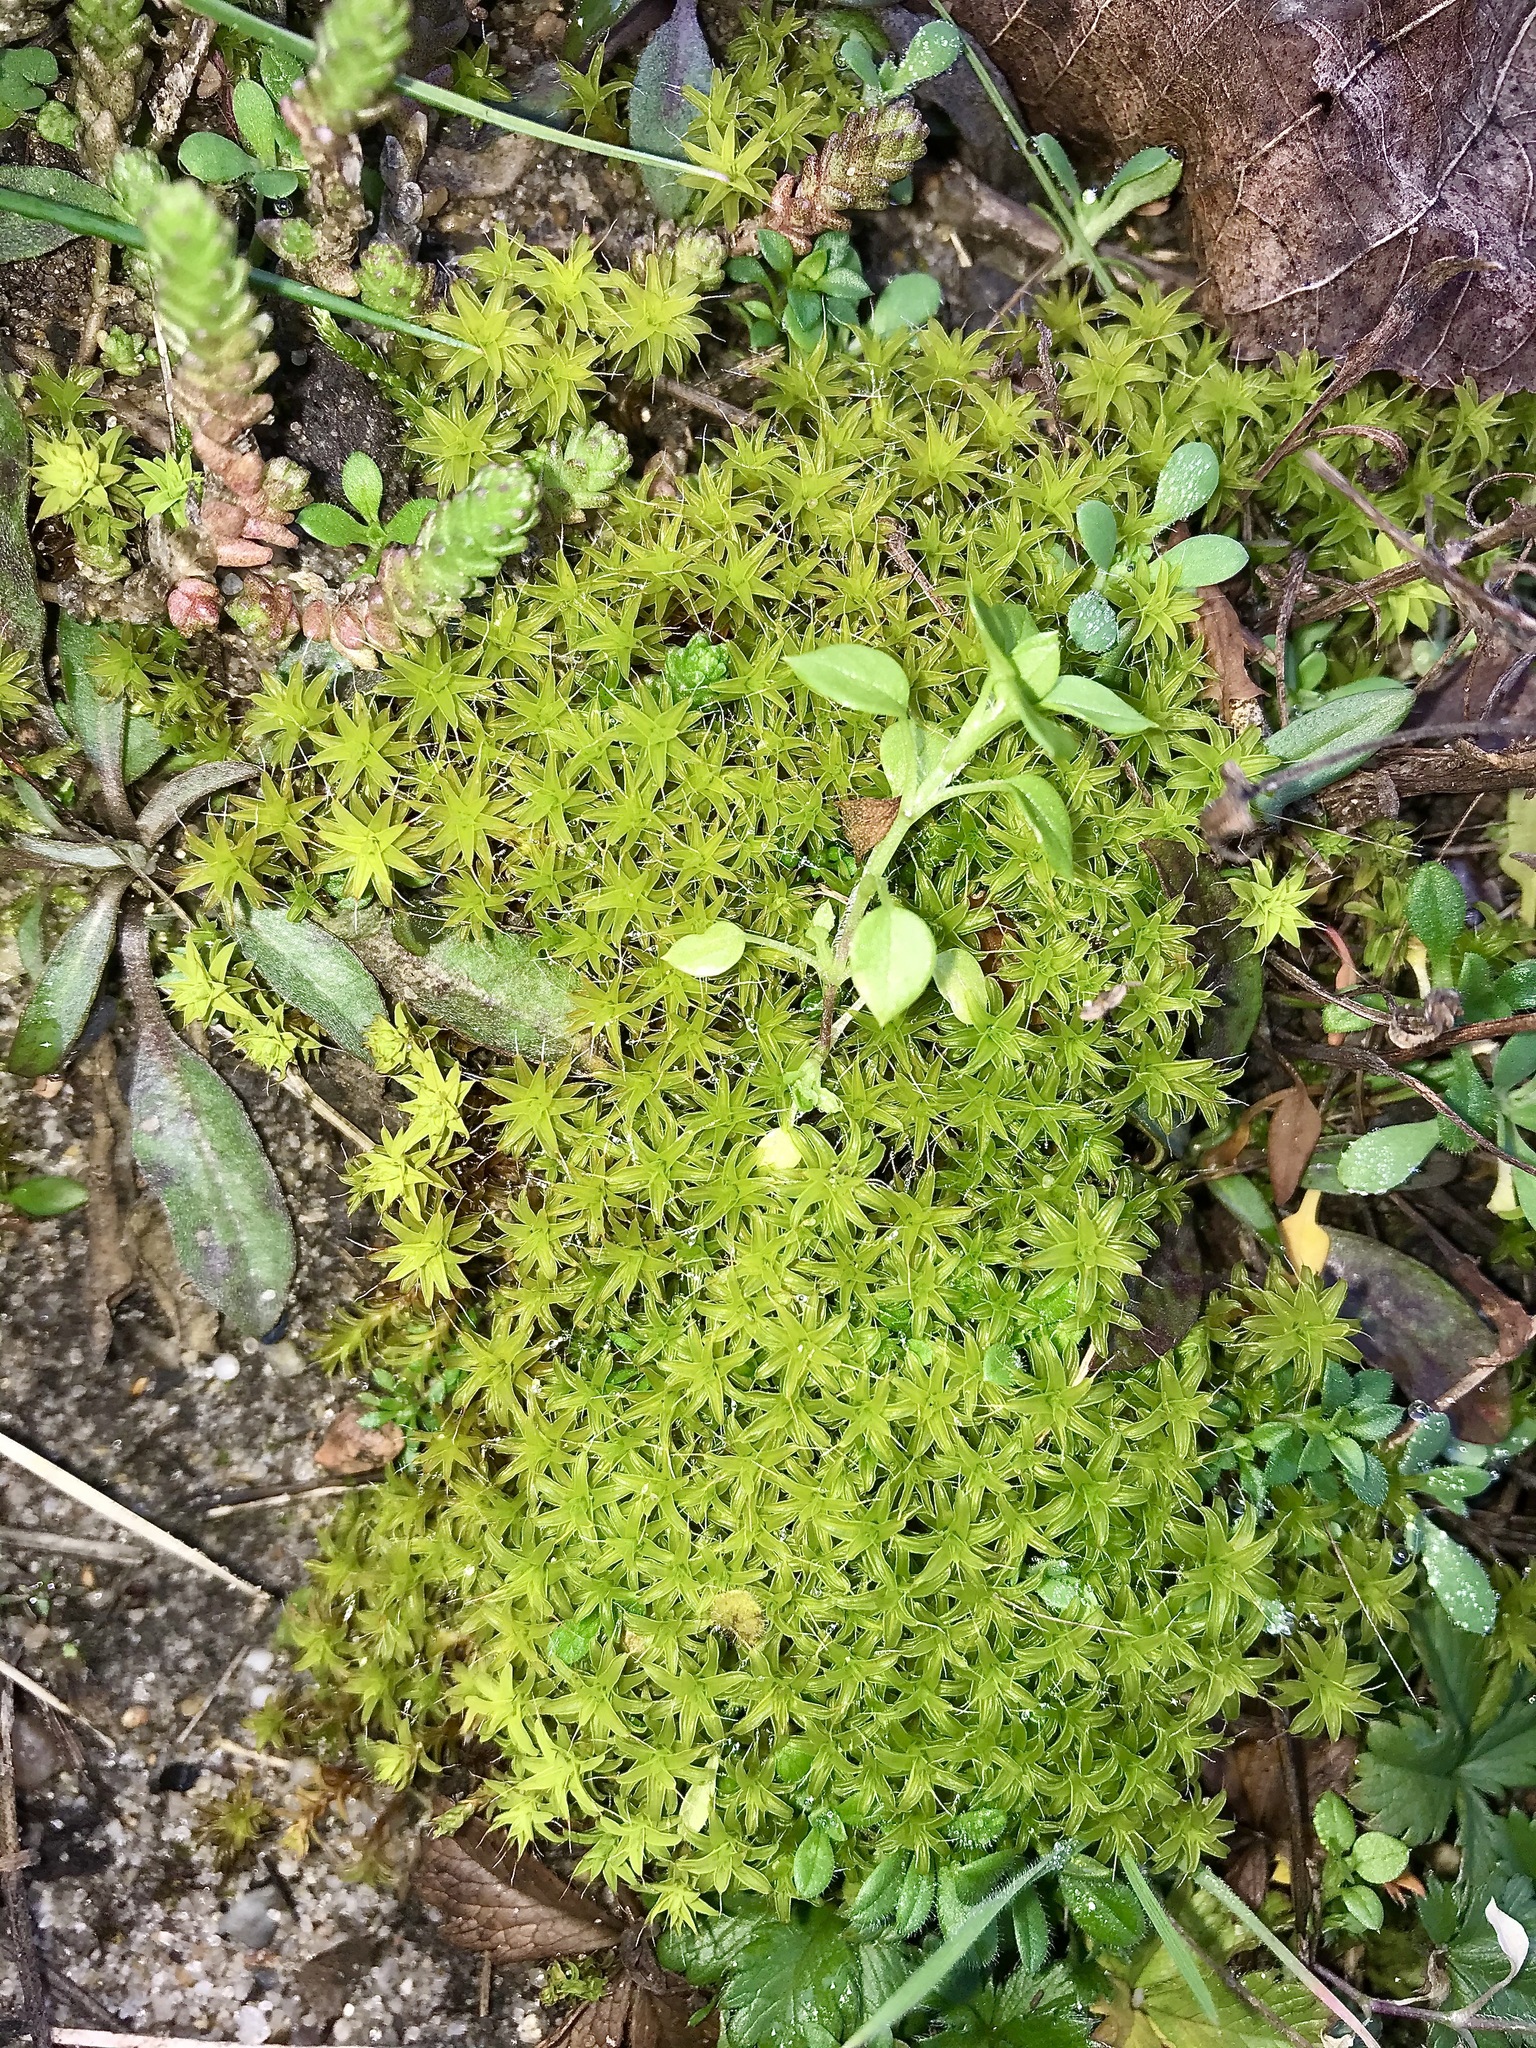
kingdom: Plantae
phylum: Bryophyta
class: Bryopsida
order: Pottiales
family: Pottiaceae
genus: Syntrichia
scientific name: Syntrichia ruralis
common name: Sidewalk screw moss
